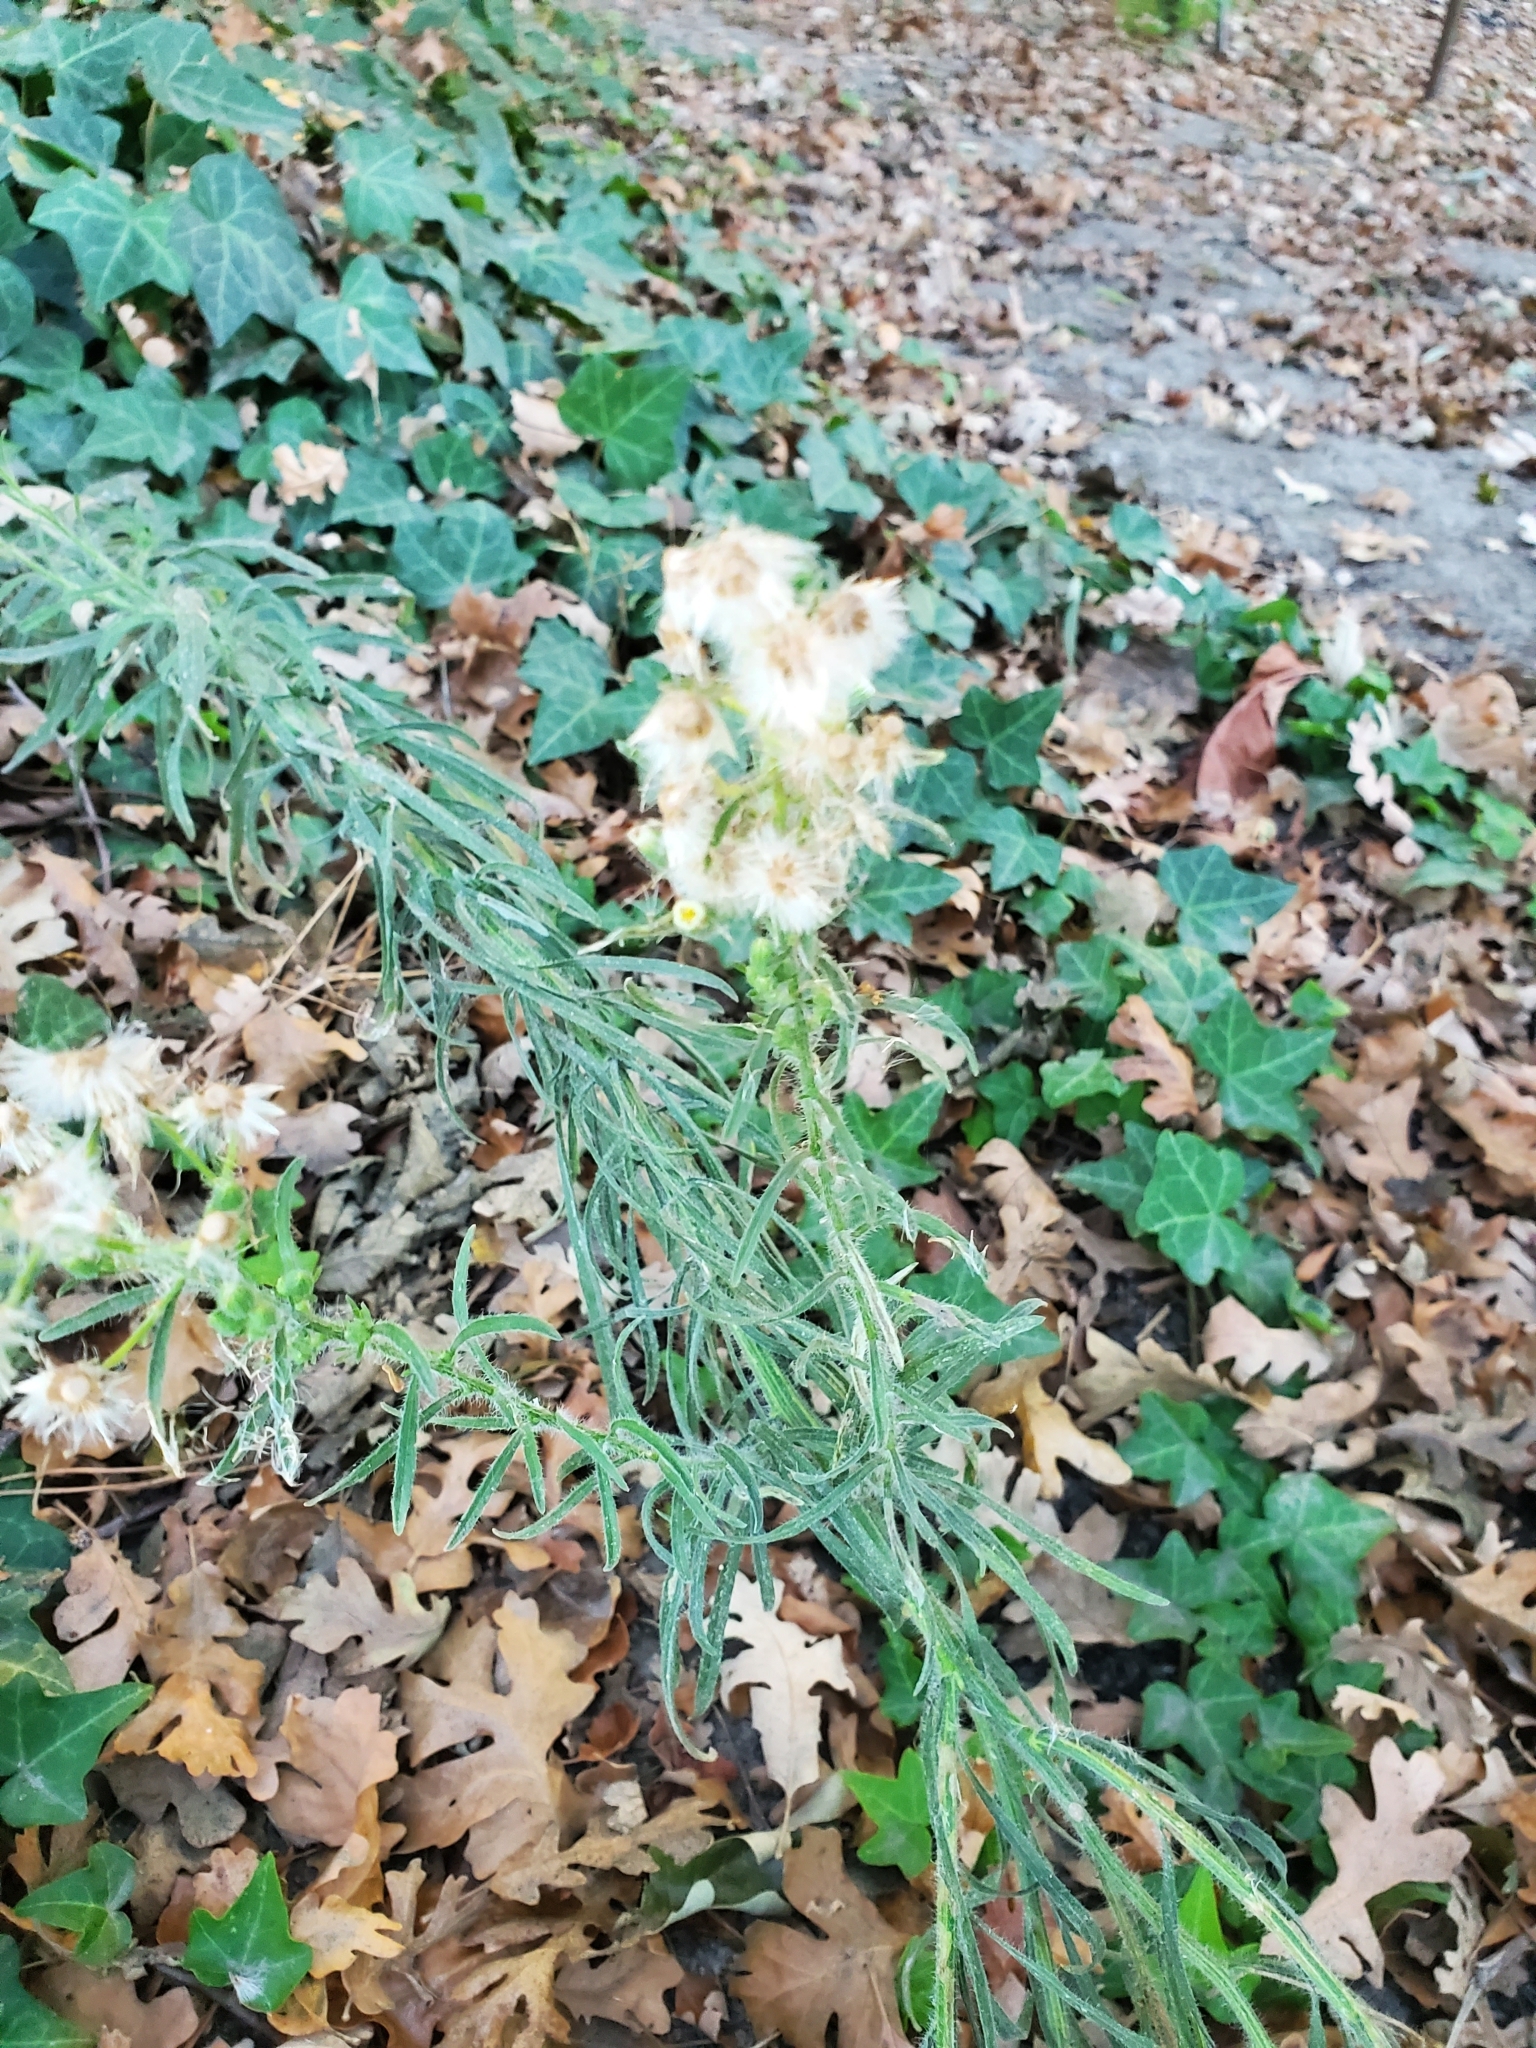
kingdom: Plantae
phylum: Tracheophyta
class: Magnoliopsida
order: Asterales
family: Asteraceae
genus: Erigeron
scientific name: Erigeron bonariensis
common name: Argentine fleabane
